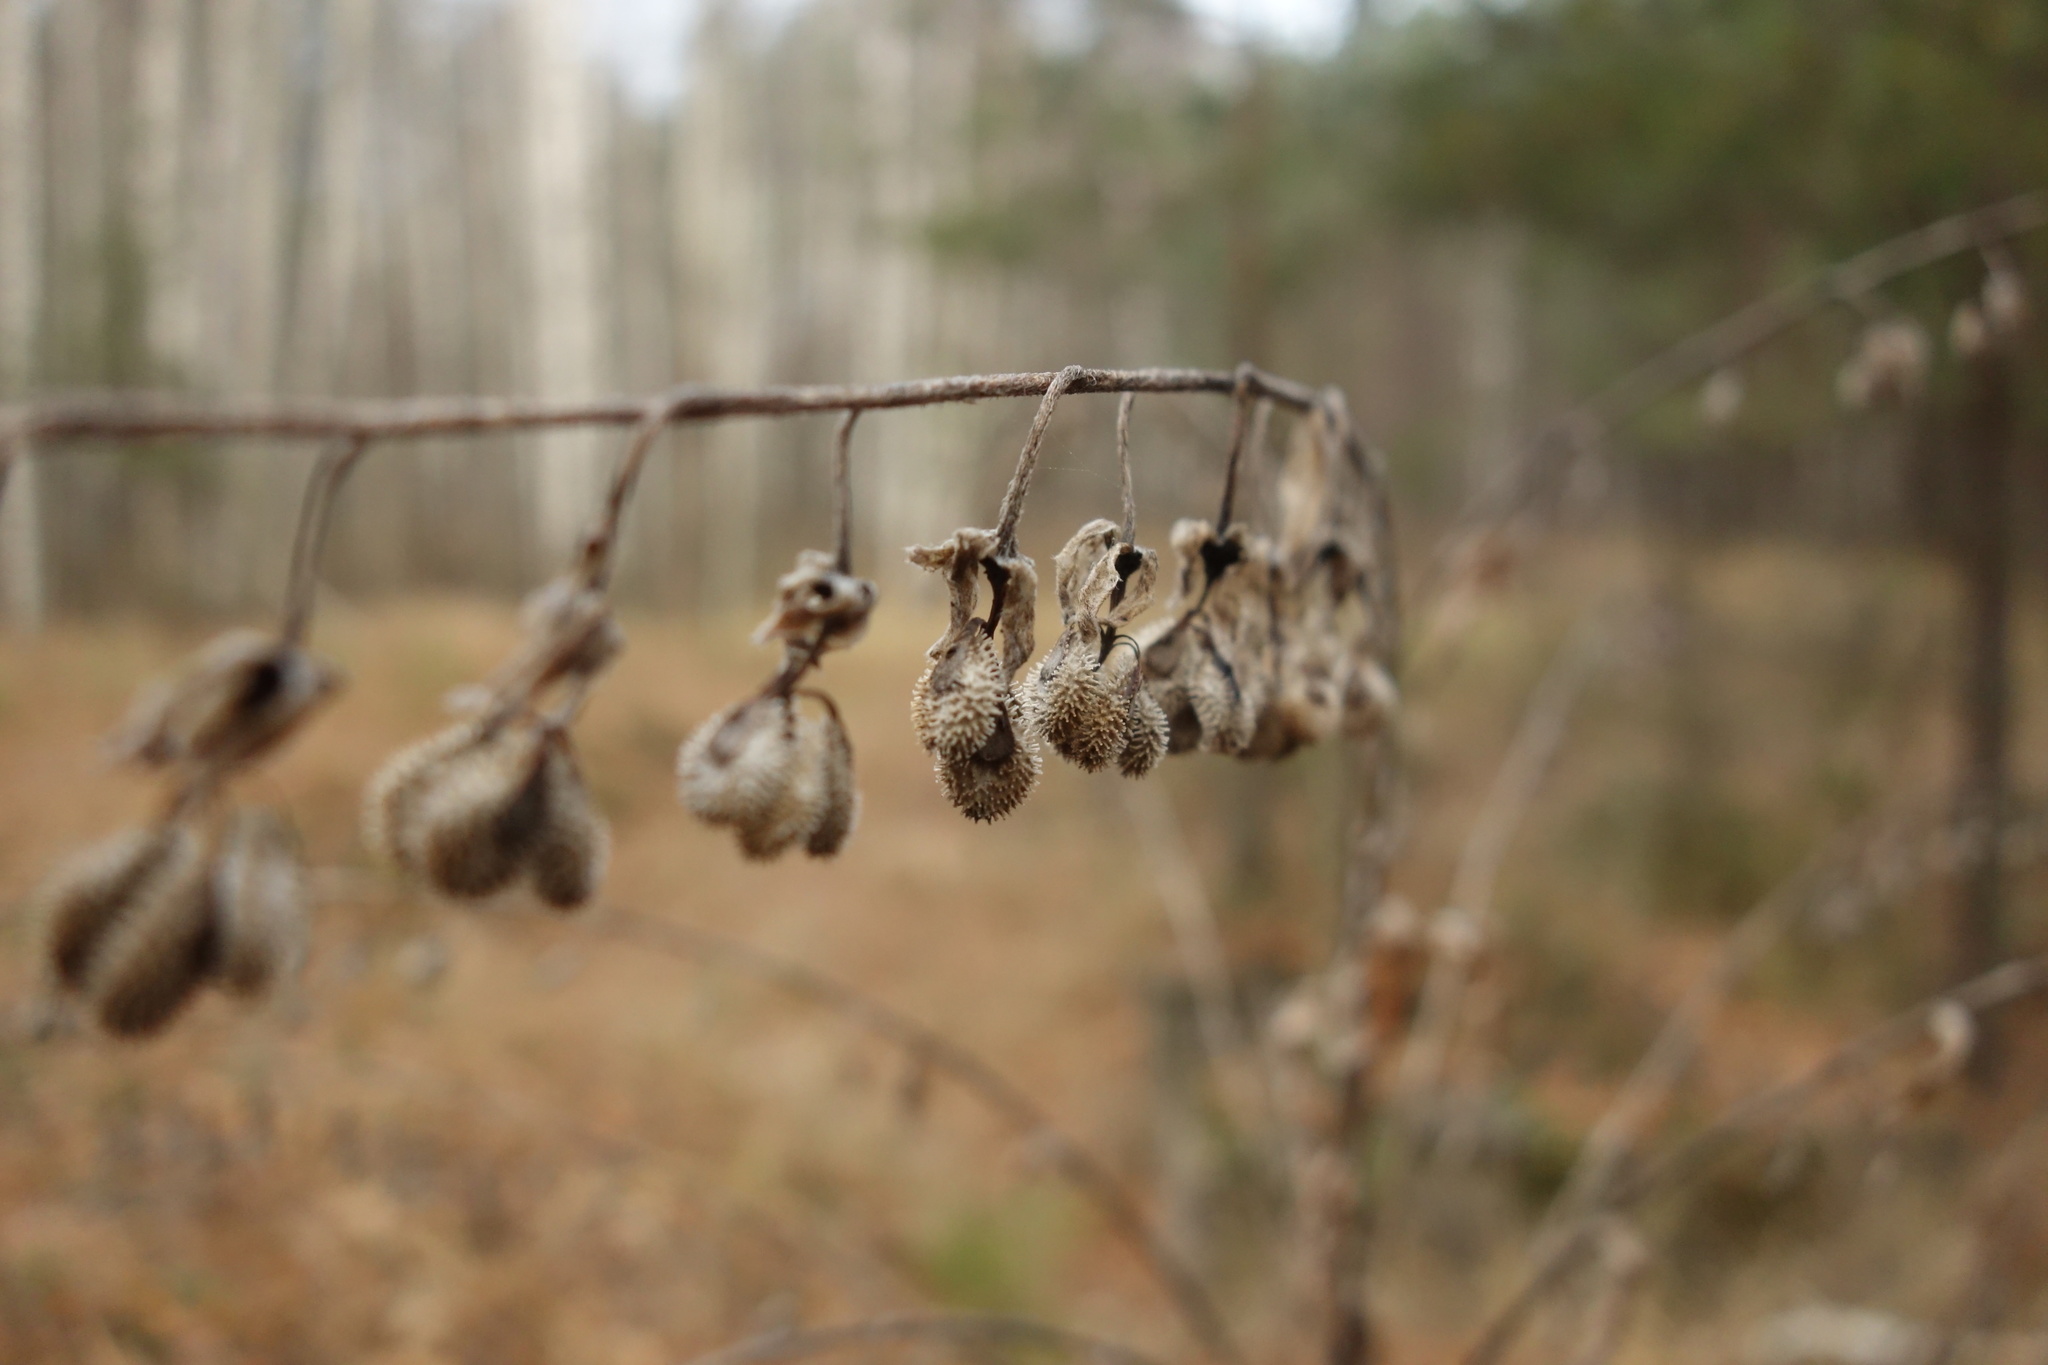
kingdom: Plantae
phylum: Tracheophyta
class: Magnoliopsida
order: Boraginales
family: Boraginaceae
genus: Cynoglossum
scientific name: Cynoglossum officinale
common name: Hound's-tongue
